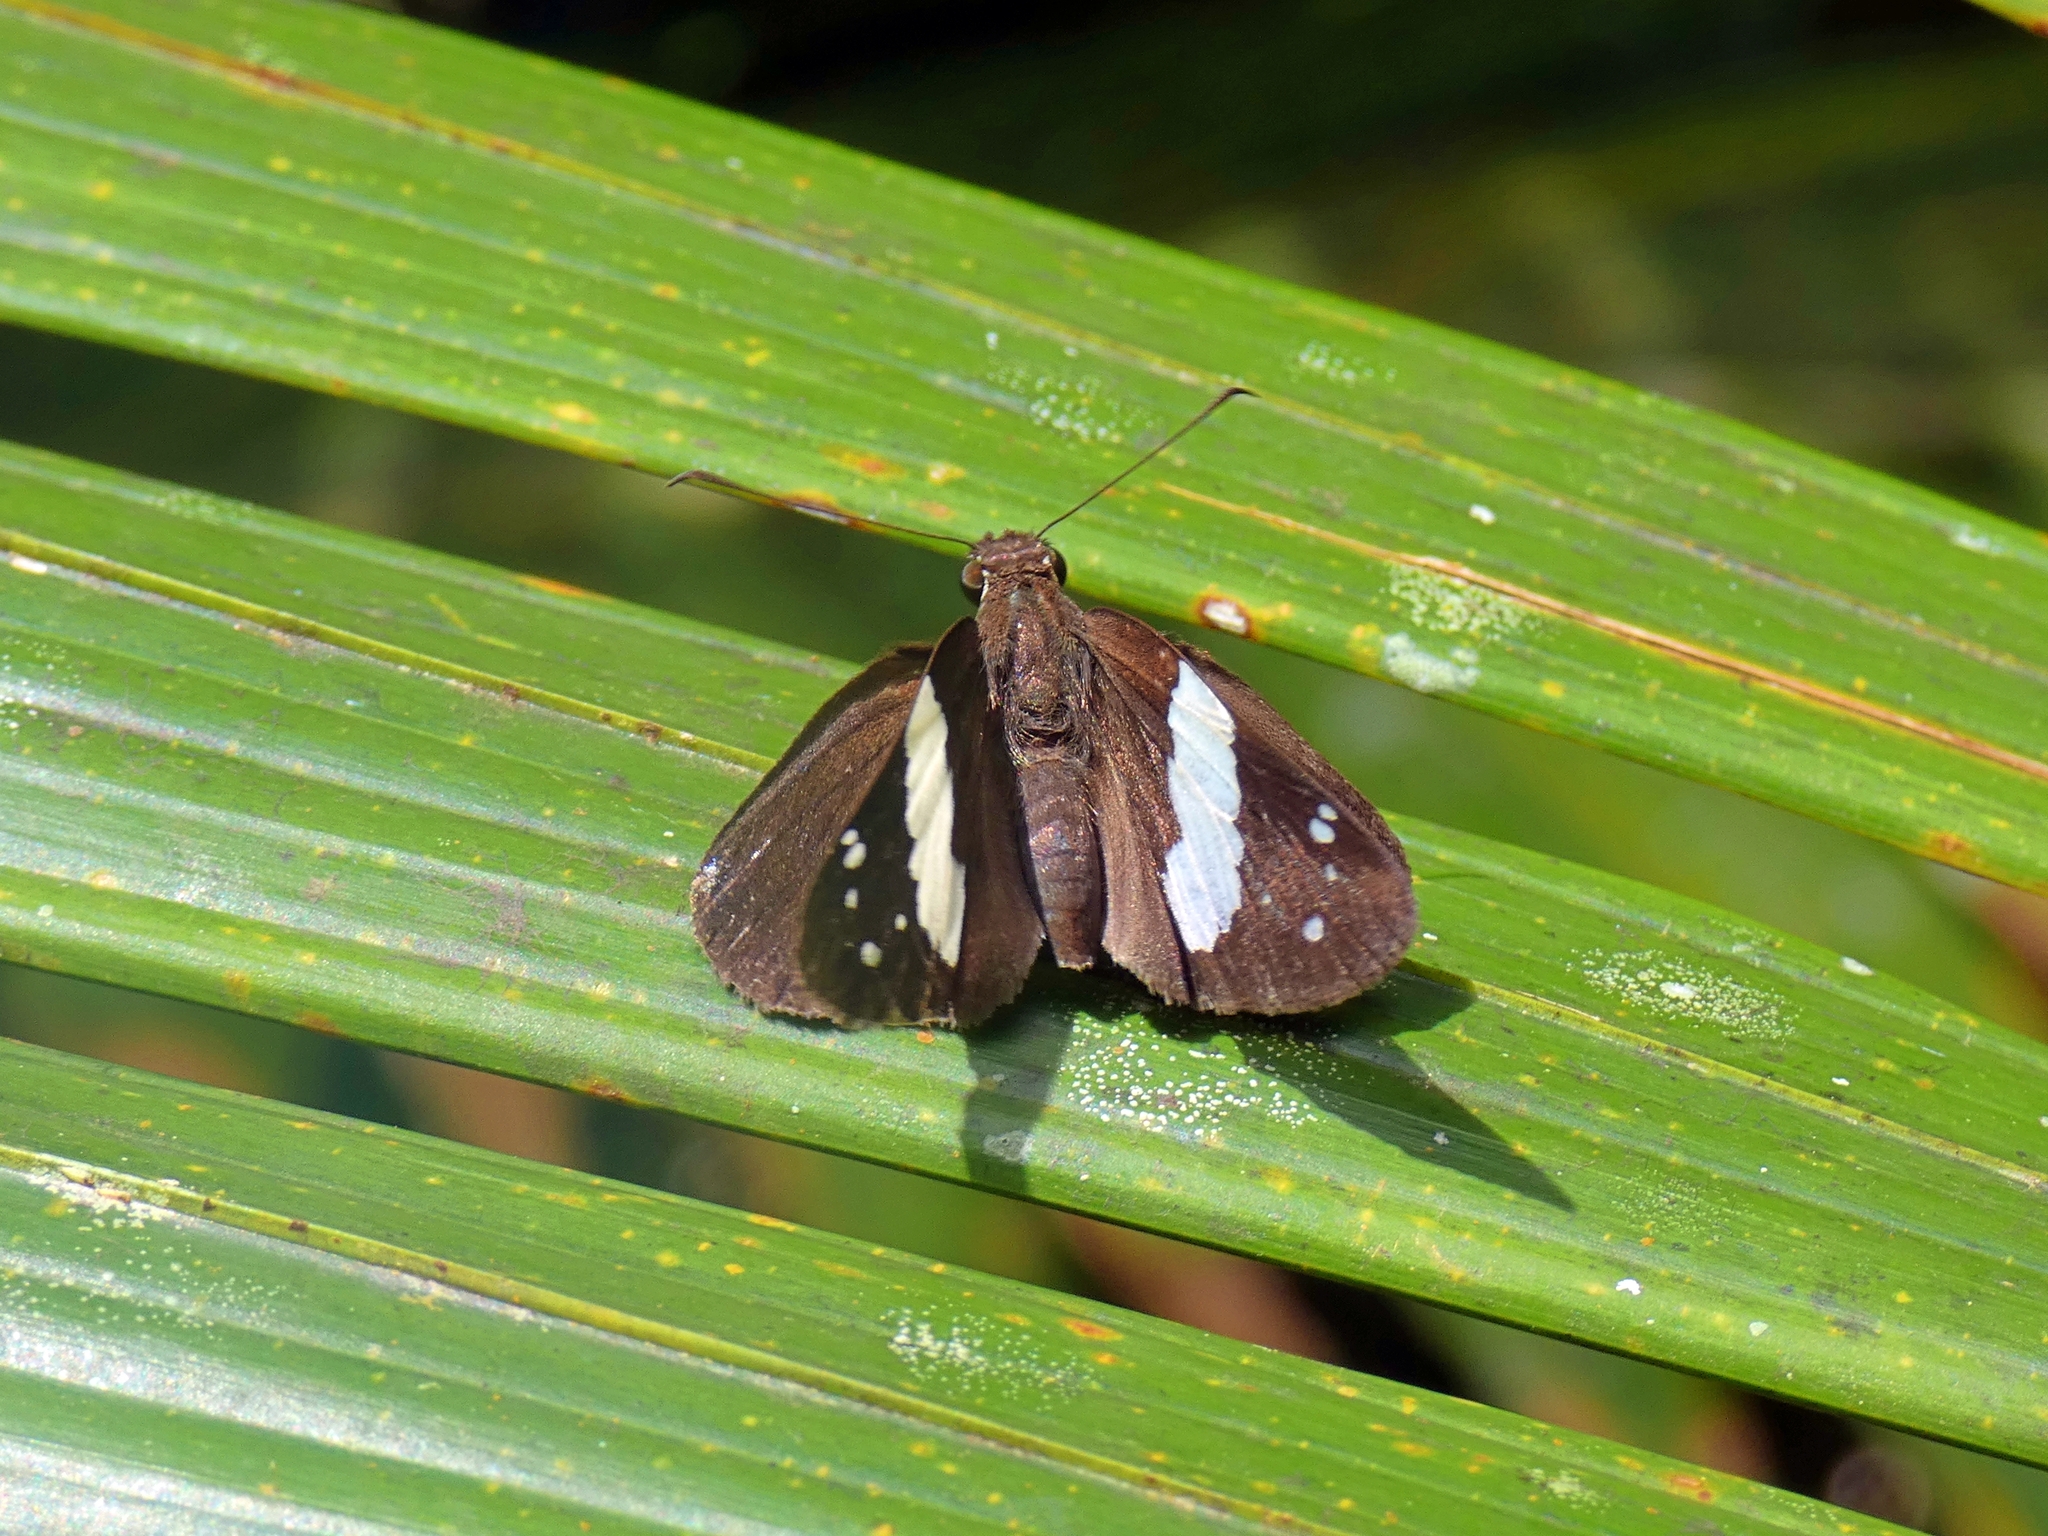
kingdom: Animalia
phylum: Arthropoda
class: Insecta
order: Lepidoptera
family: Hesperiidae
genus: Notocrypta
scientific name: Notocrypta waigensis
